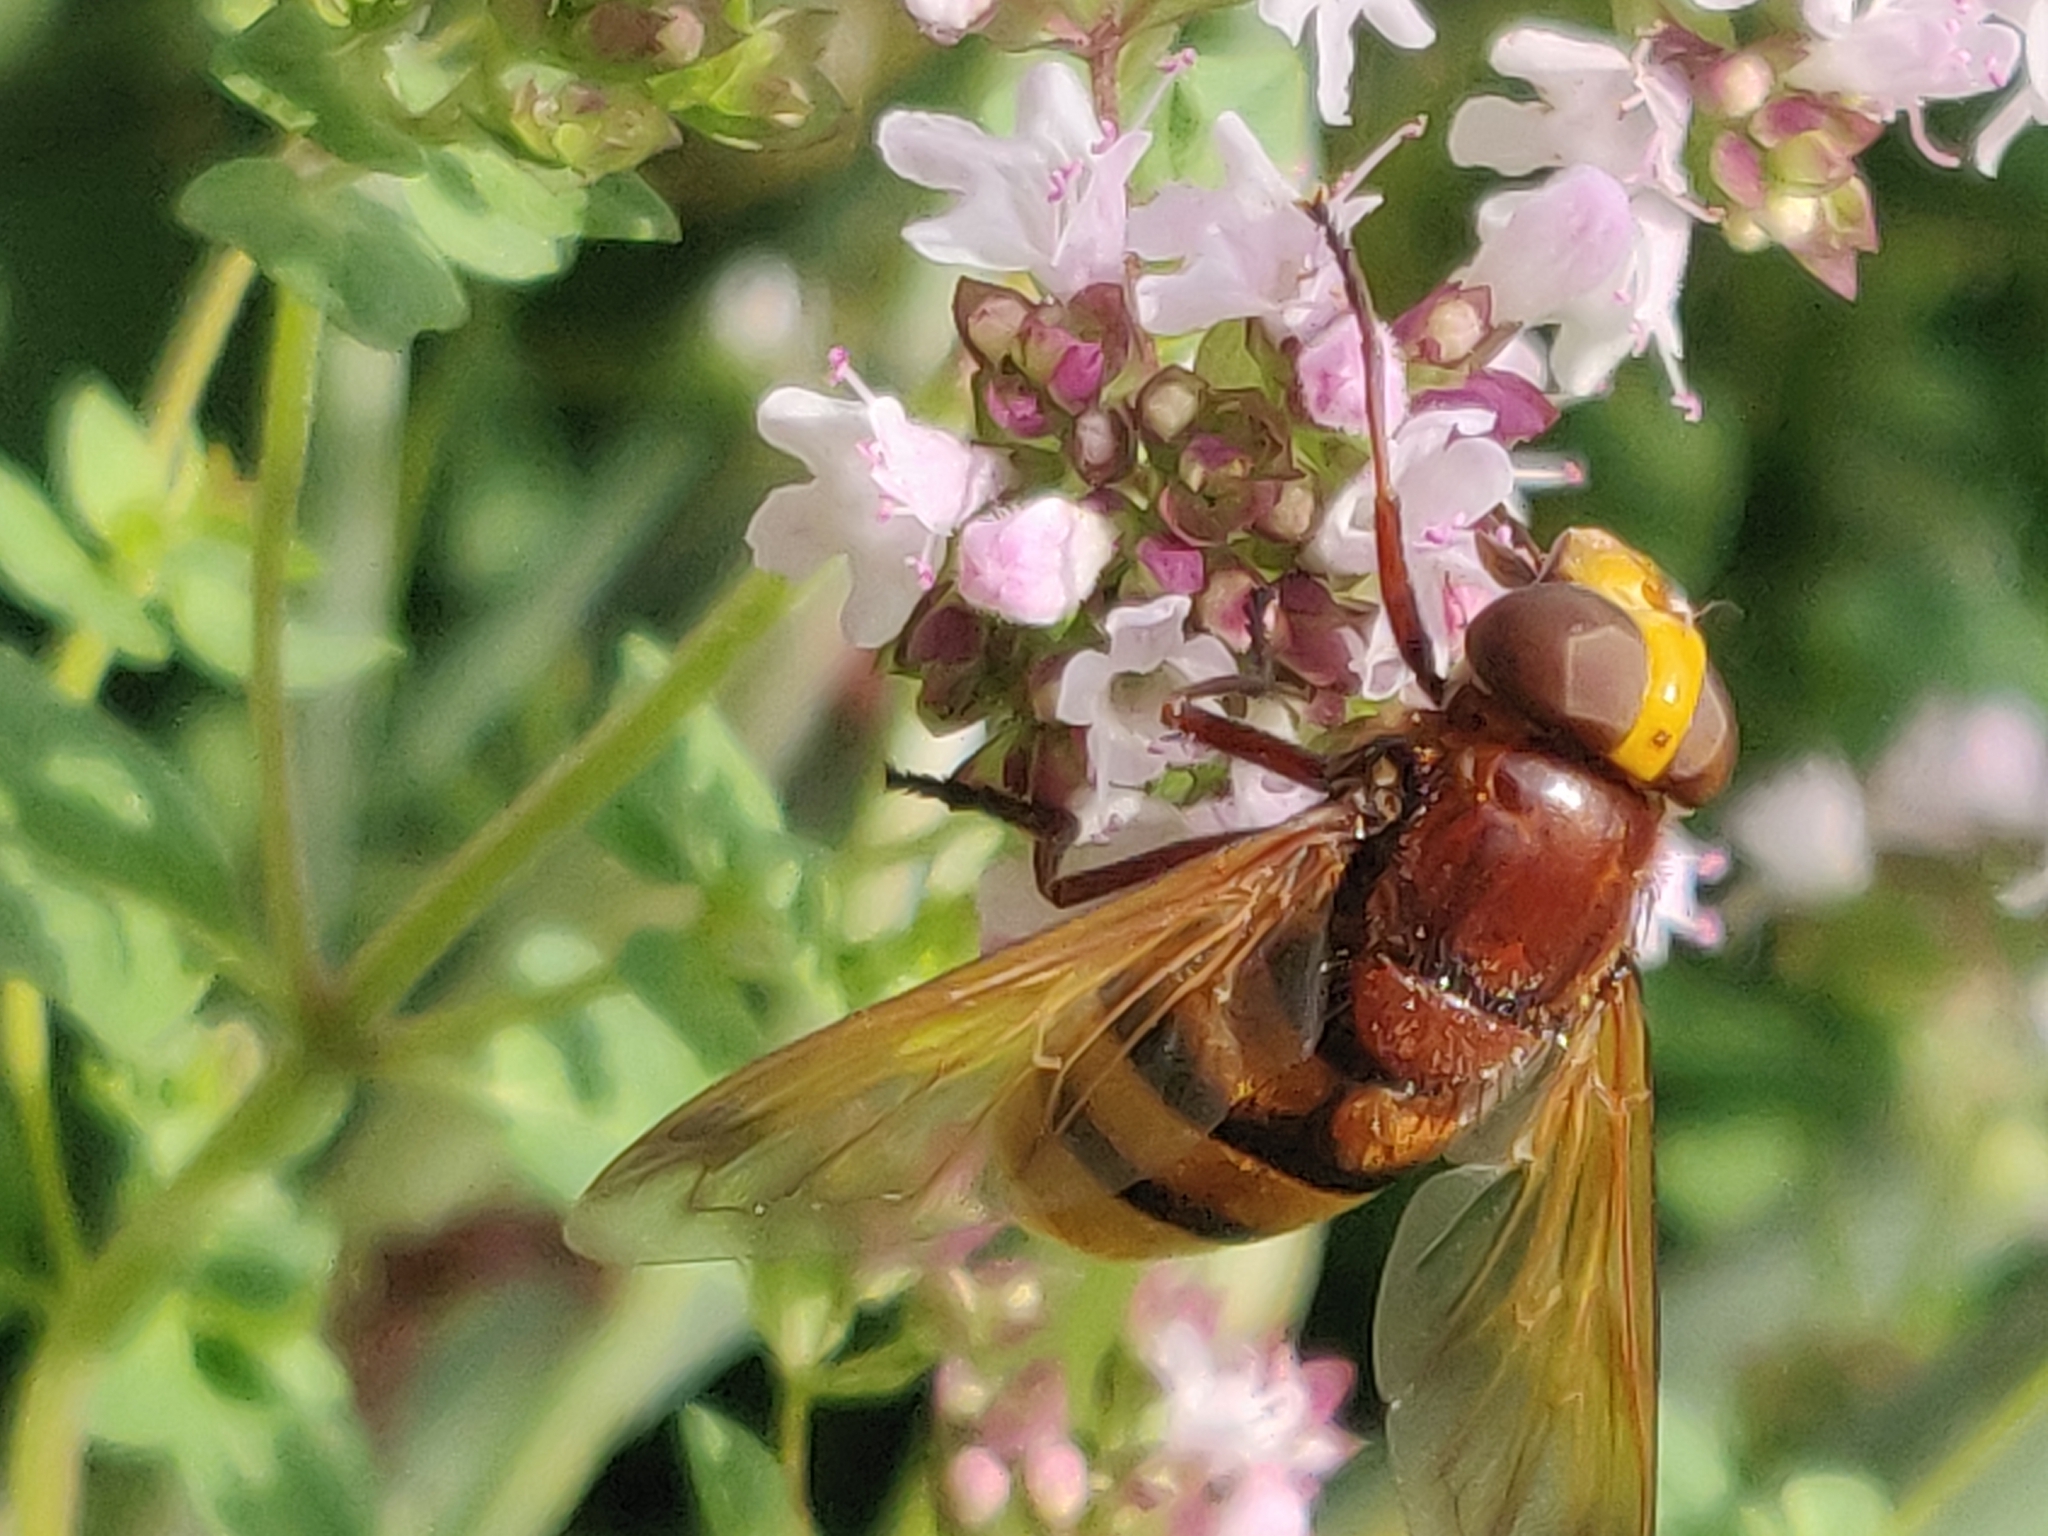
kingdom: Animalia
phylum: Arthropoda
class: Insecta
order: Diptera
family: Syrphidae
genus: Volucella
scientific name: Volucella zonaria
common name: Hornet hoverfly
